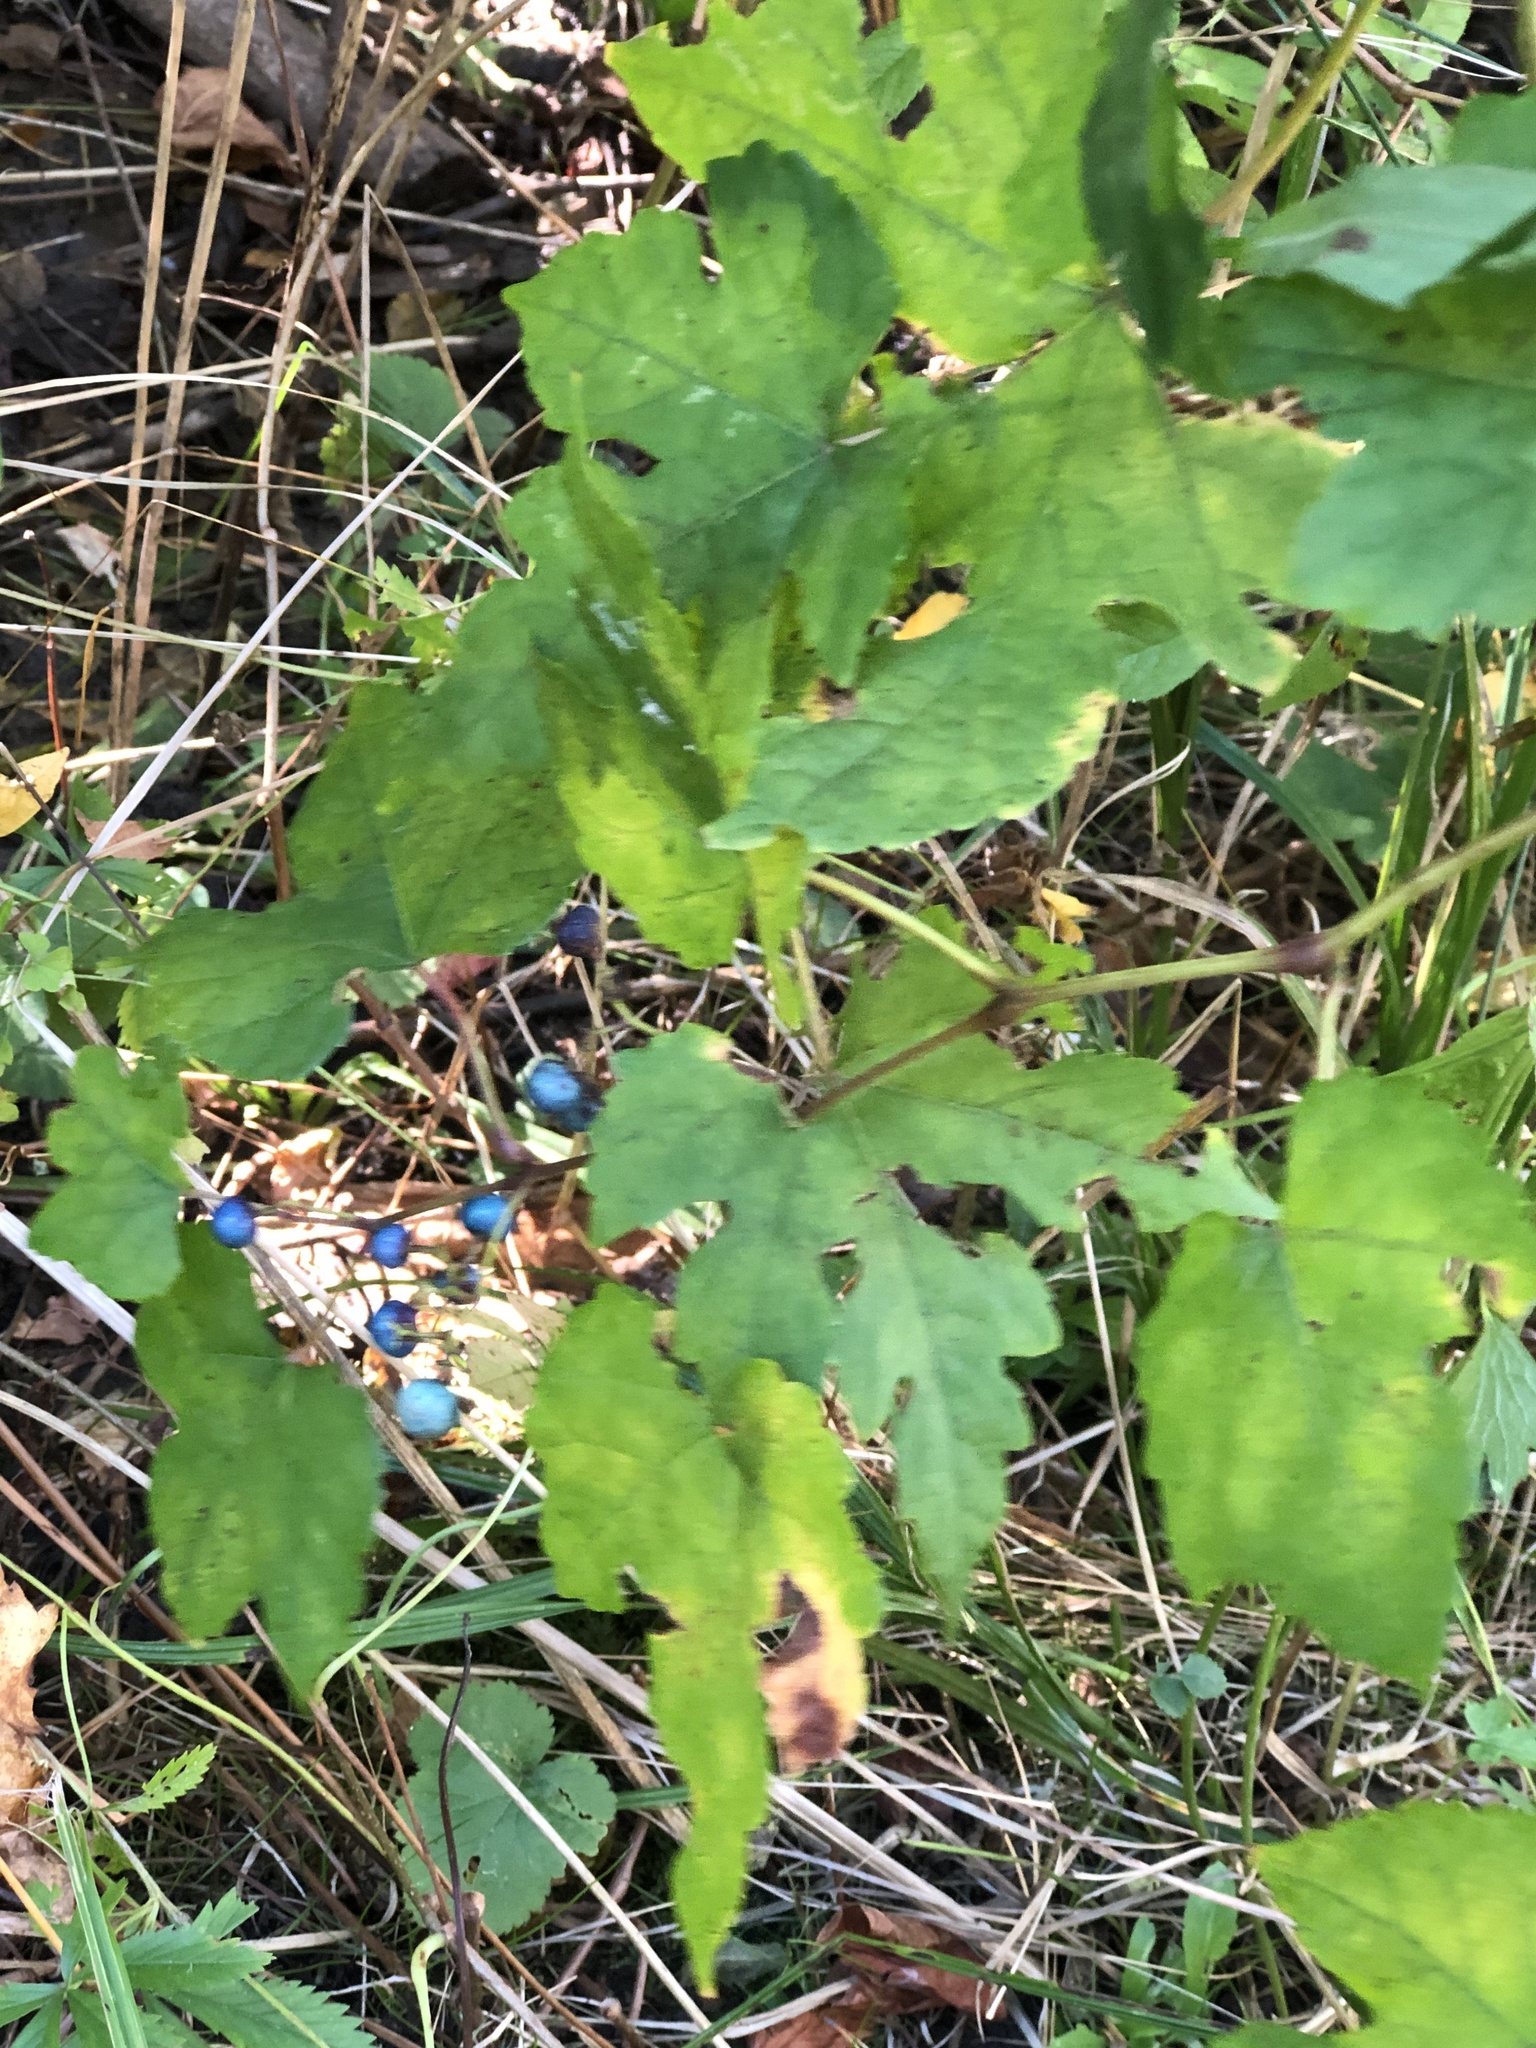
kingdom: Plantae
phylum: Tracheophyta
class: Magnoliopsida
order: Vitales
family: Vitaceae
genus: Ampelopsis
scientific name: Ampelopsis glandulosa
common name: Amur peppervine
